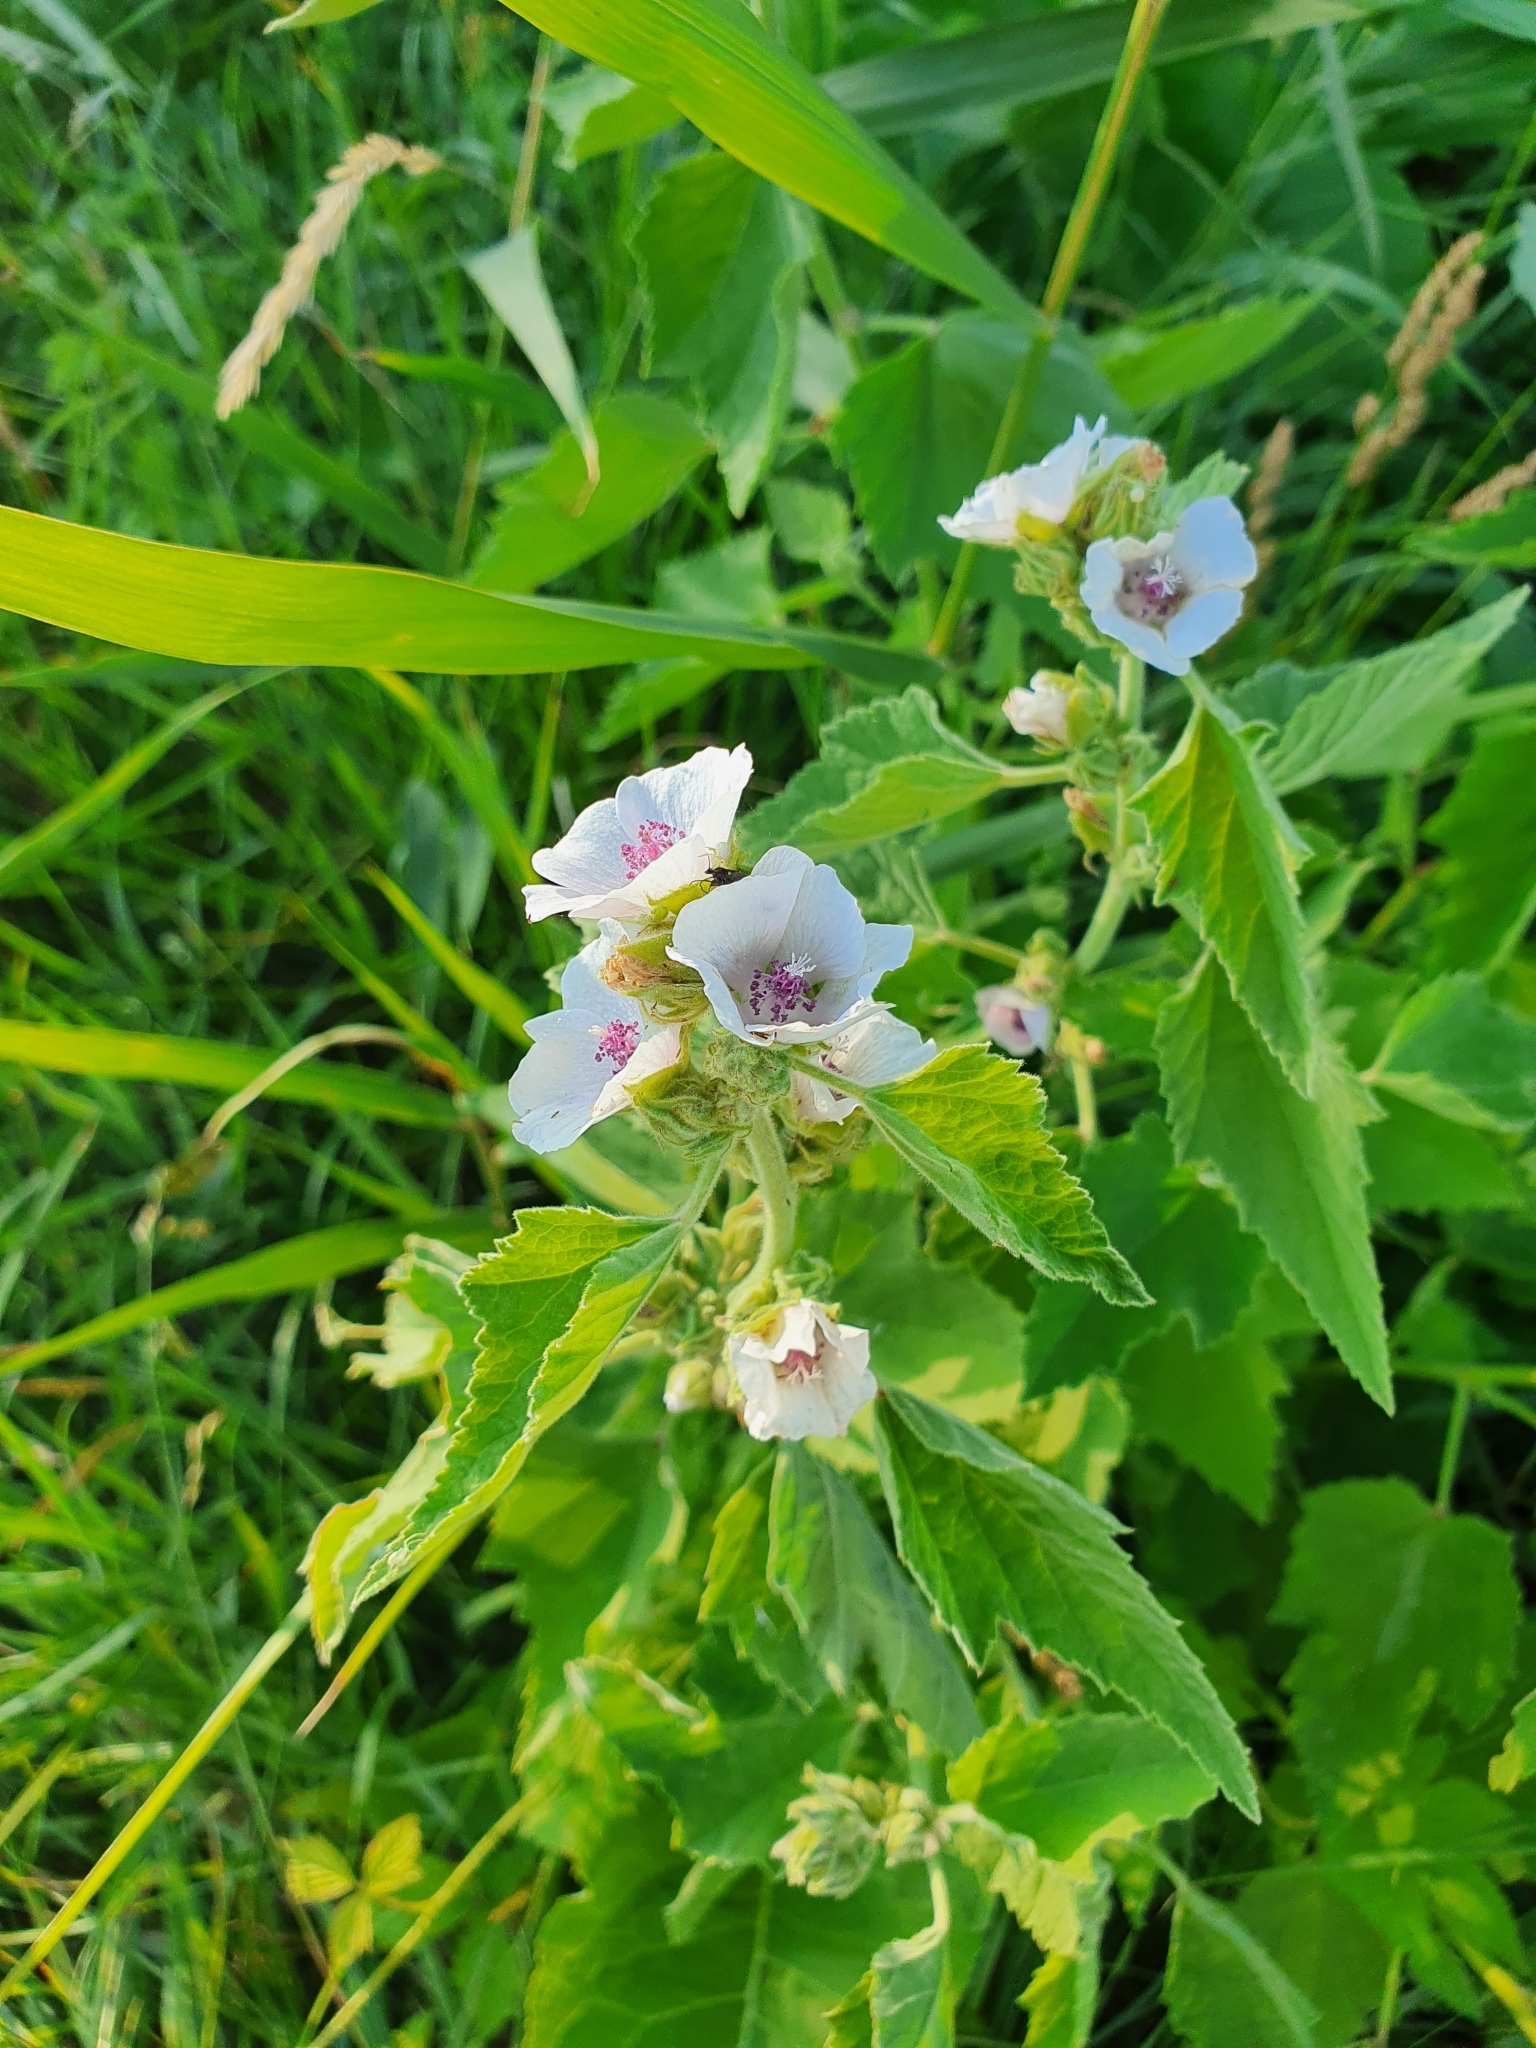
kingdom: Plantae
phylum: Tracheophyta
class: Magnoliopsida
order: Malvales
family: Malvaceae
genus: Althaea
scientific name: Althaea officinalis
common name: Marsh-mallow
